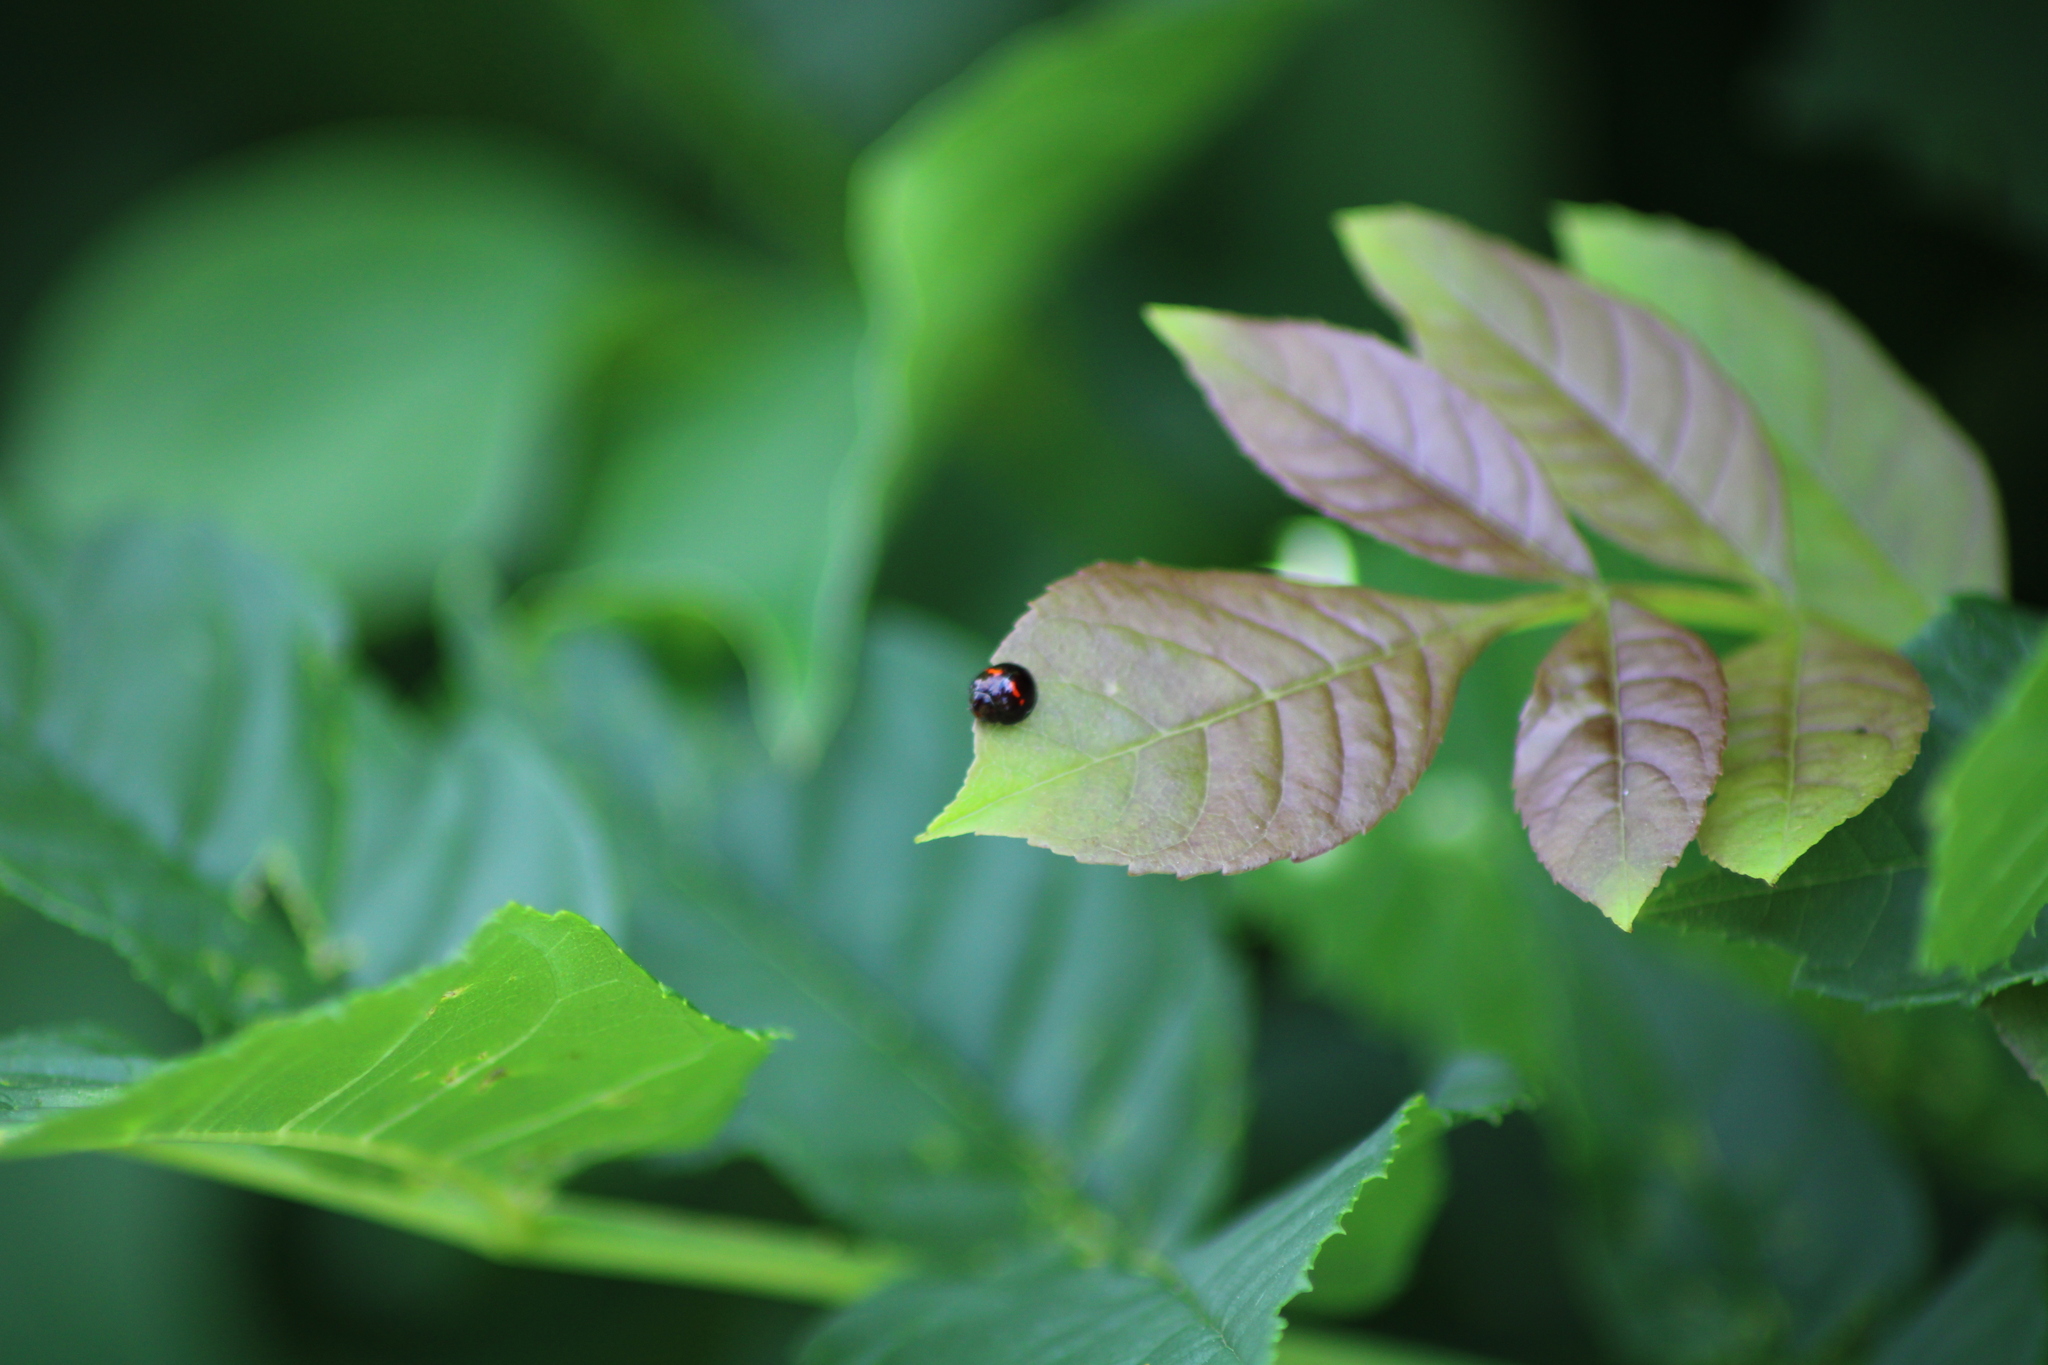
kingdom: Animalia
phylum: Arthropoda
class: Insecta
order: Coleoptera
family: Coccinellidae
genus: Chilocorus
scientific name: Chilocorus bipustulatus
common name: Heather ladybird
